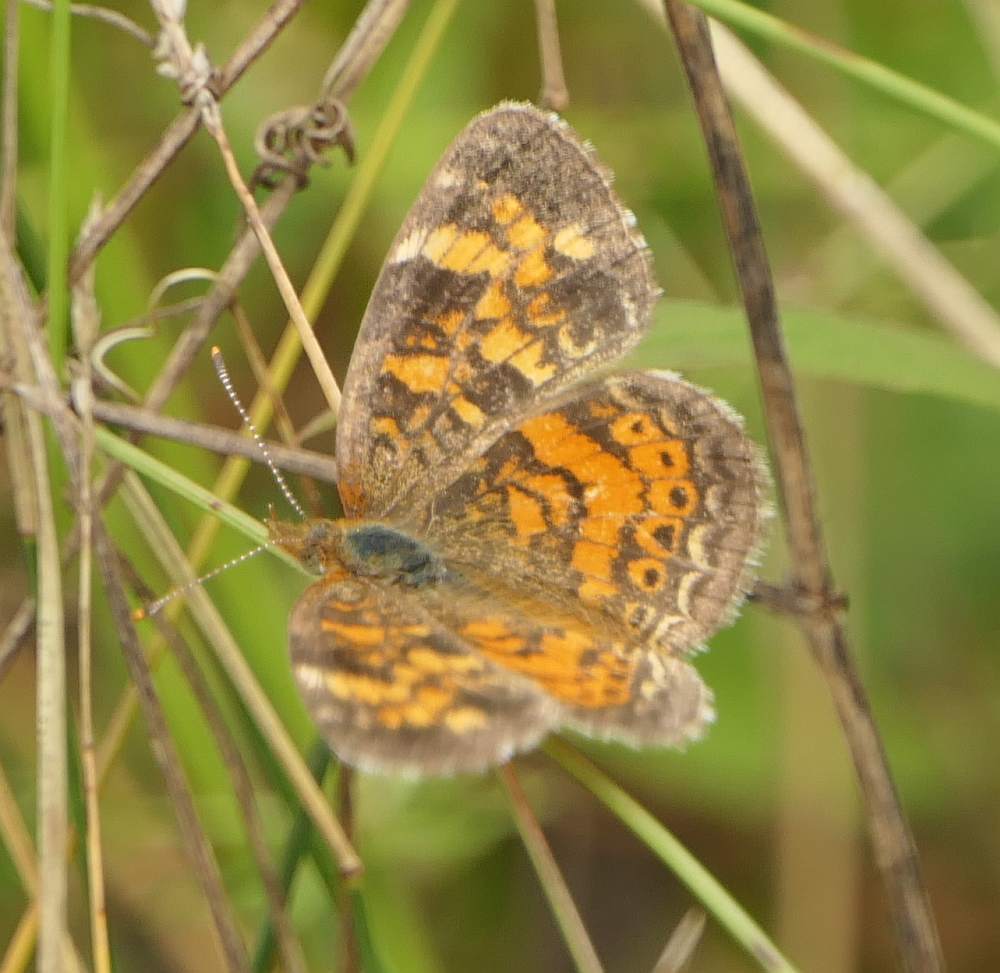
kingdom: Animalia
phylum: Arthropoda
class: Insecta
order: Lepidoptera
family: Nymphalidae
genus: Phyciodes
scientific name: Phyciodes tharos
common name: Pearl crescent
